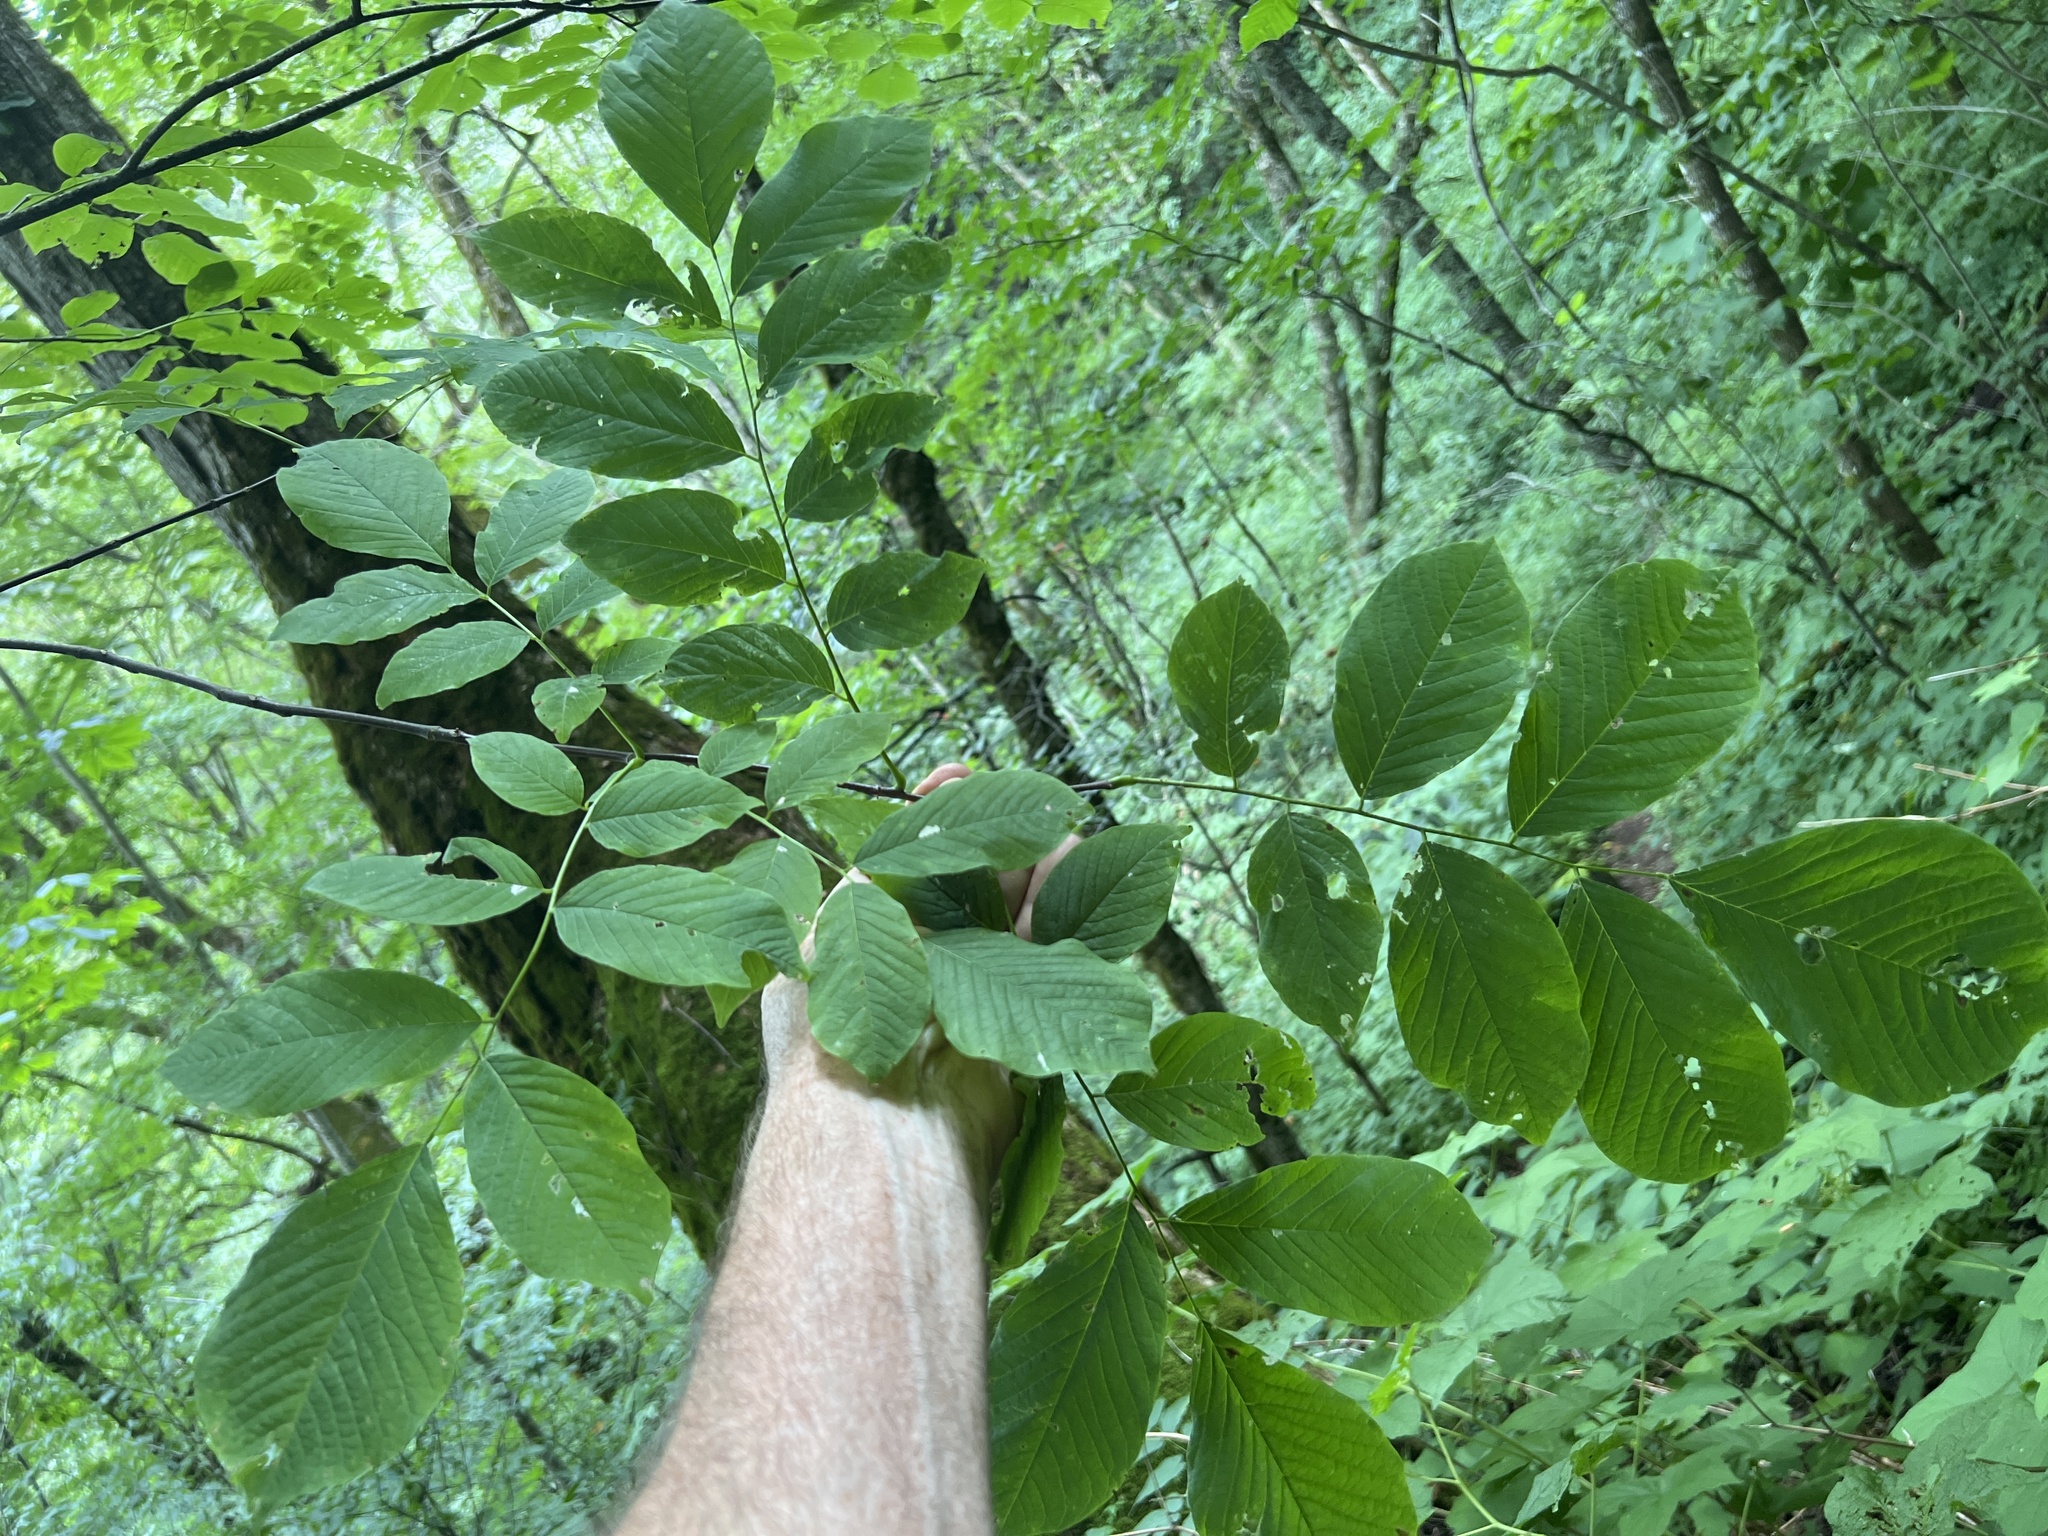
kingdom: Plantae
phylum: Tracheophyta
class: Magnoliopsida
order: Fabales
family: Fabaceae
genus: Cladrastis
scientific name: Cladrastis kentukea
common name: Kentucky yellow-wood
